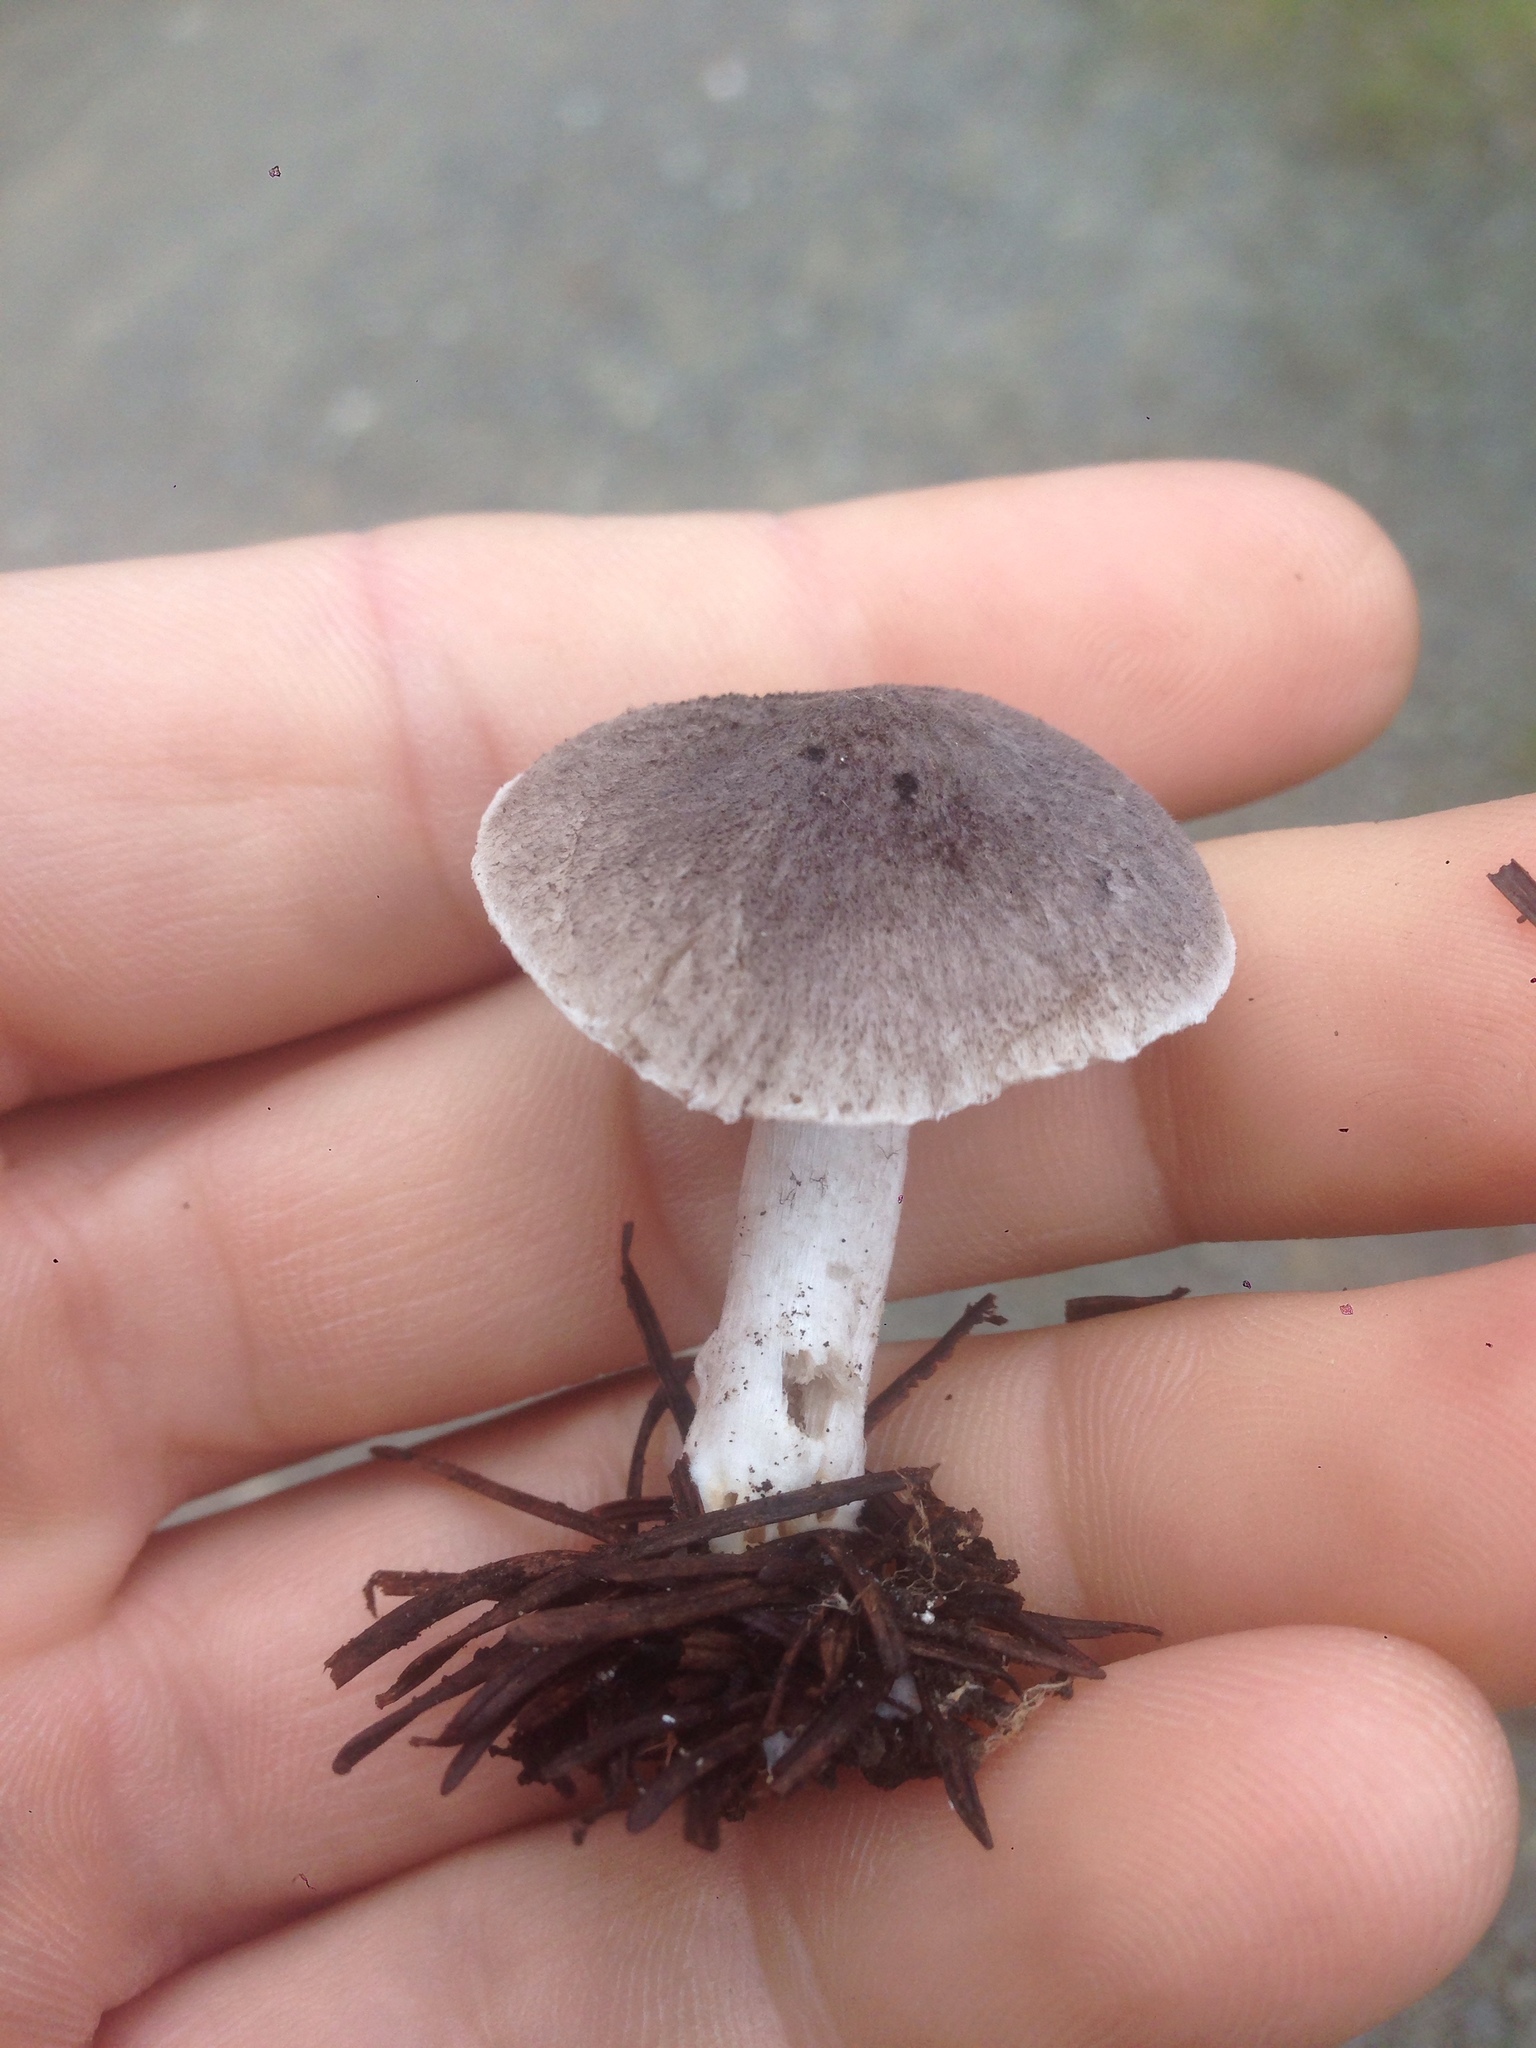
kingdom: Fungi
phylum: Basidiomycota
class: Agaricomycetes
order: Agaricales
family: Tricholomataceae
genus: Tricholoma
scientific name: Tricholoma terreum
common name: Grey knight
